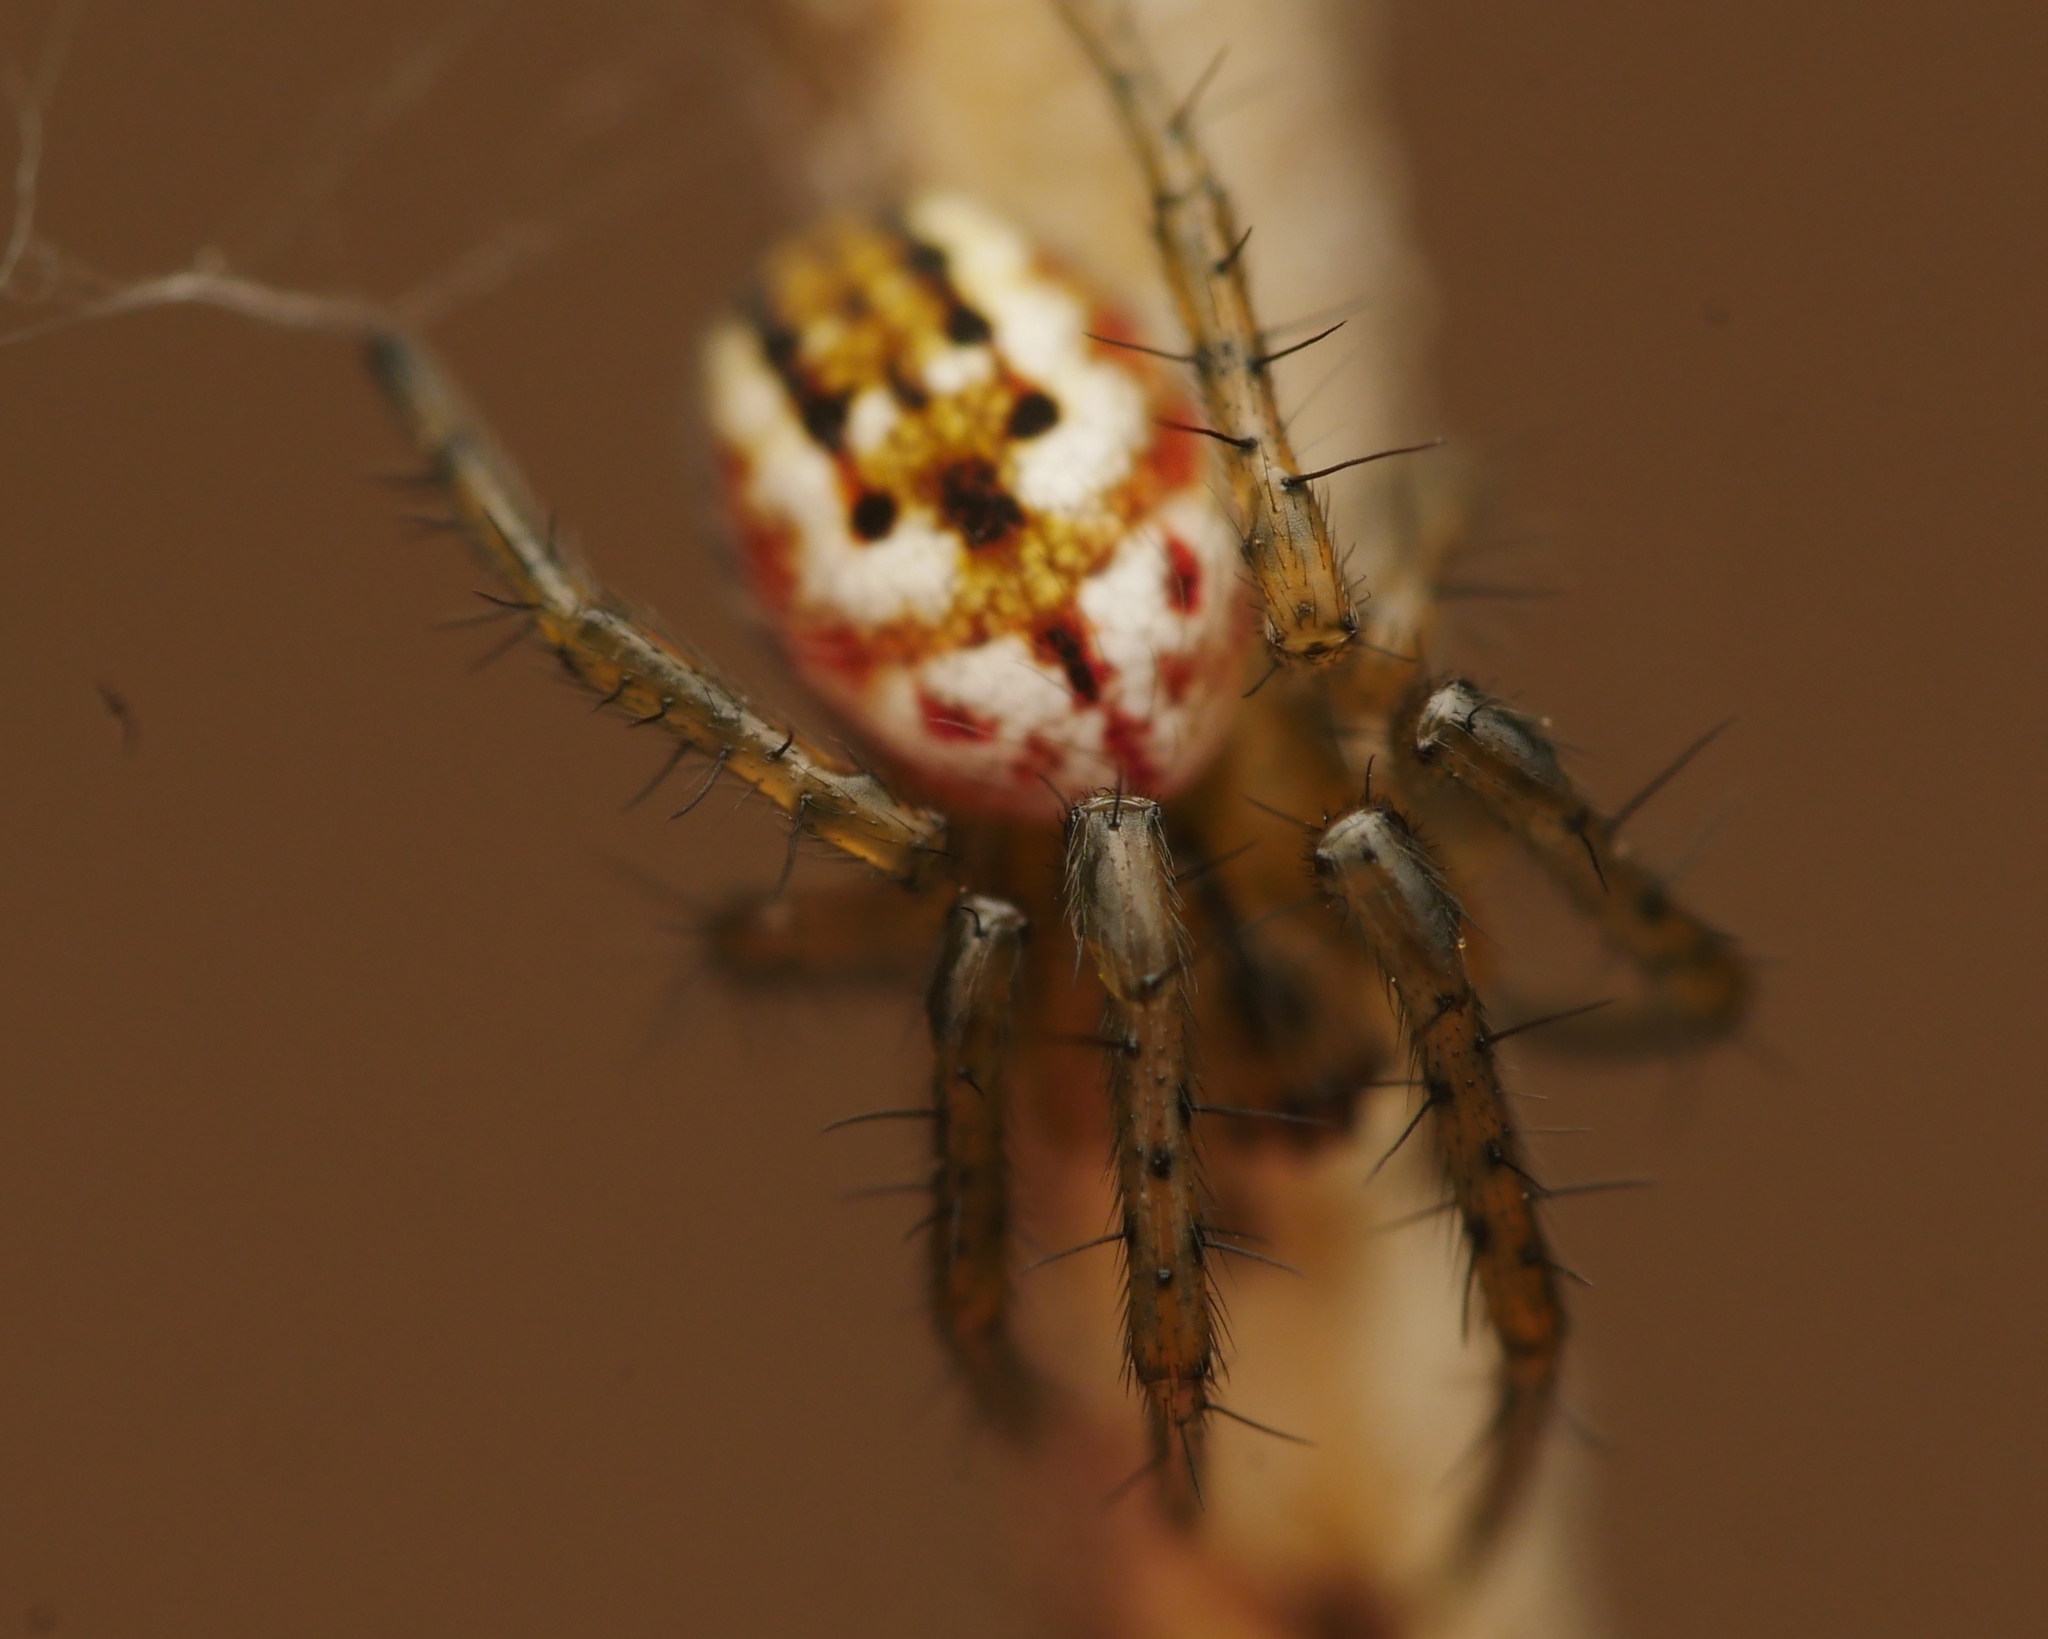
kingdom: Animalia
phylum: Arthropoda
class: Arachnida
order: Araneae
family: Araneidae
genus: Mangora
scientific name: Mangora acalypha
